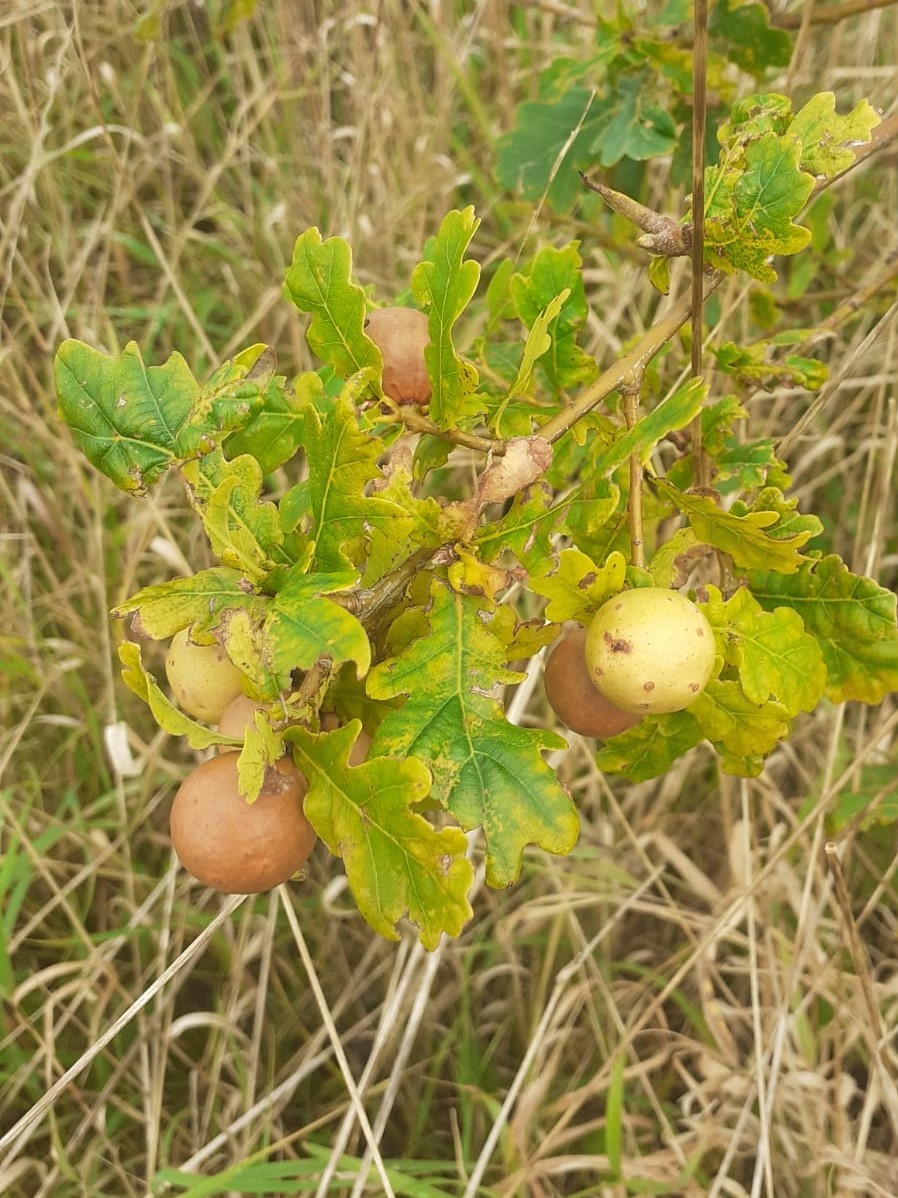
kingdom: Animalia
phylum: Arthropoda
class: Insecta
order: Hymenoptera
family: Cynipidae
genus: Andricus
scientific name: Andricus kollari
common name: Marble gall
